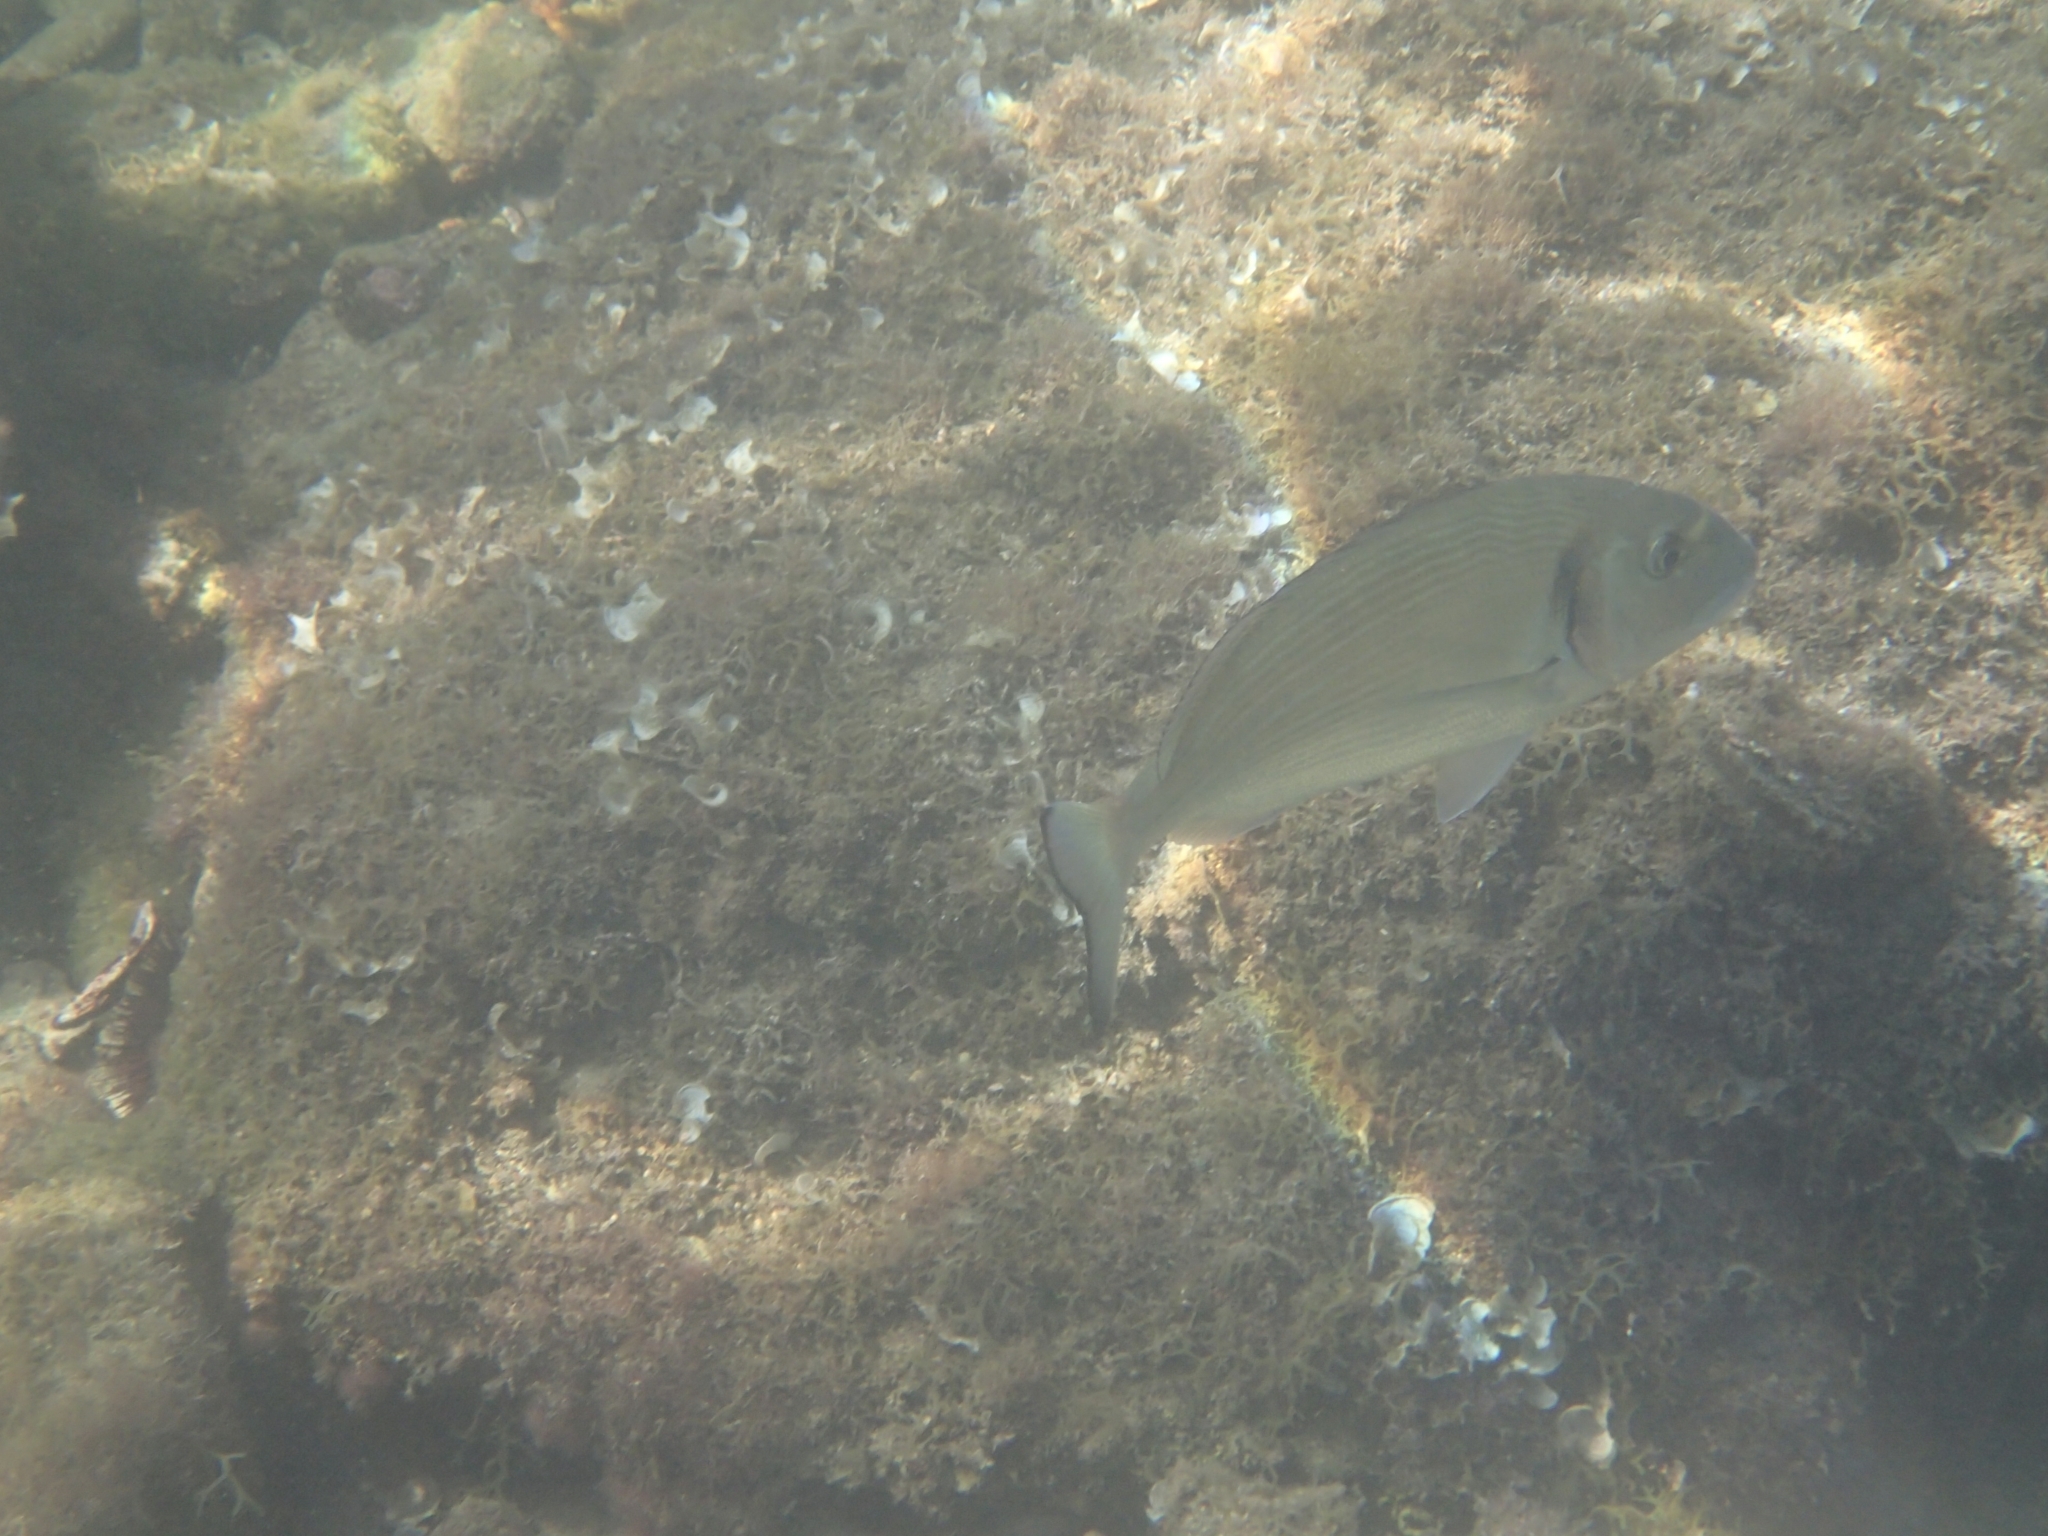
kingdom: Animalia
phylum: Chordata
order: Perciformes
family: Sparidae
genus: Sparus
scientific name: Sparus aurata
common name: Gilthead
